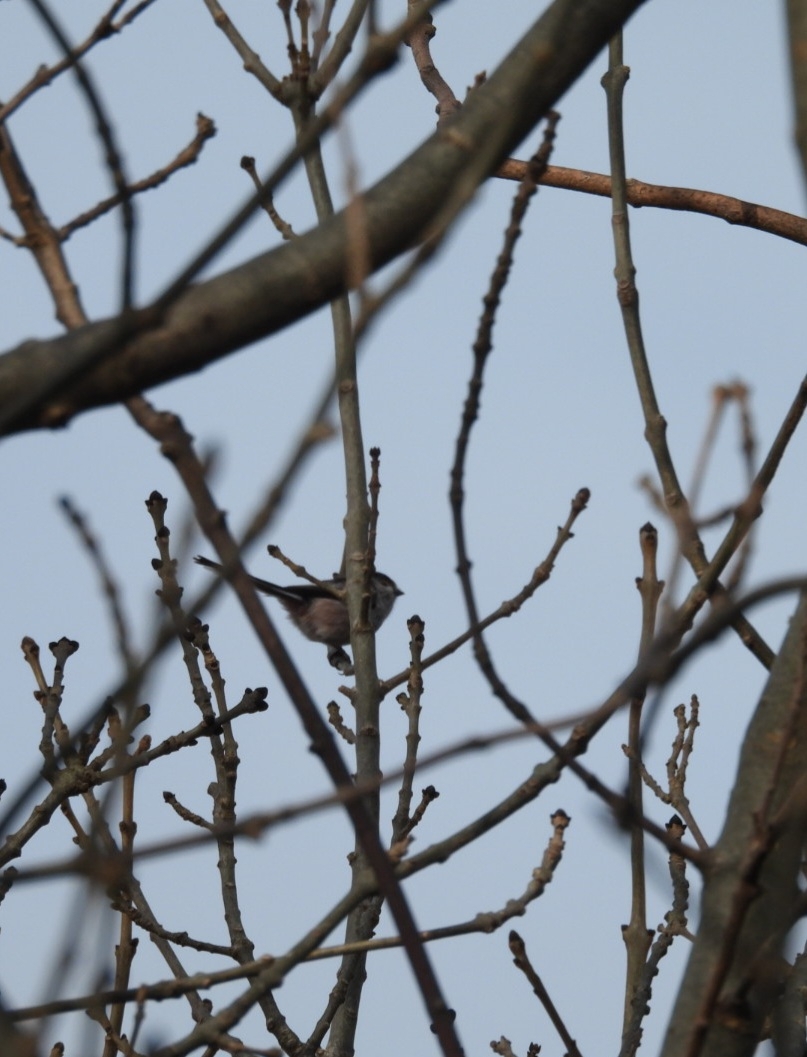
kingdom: Animalia
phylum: Chordata
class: Aves
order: Passeriformes
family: Aegithalidae
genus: Aegithalos
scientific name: Aegithalos caudatus
